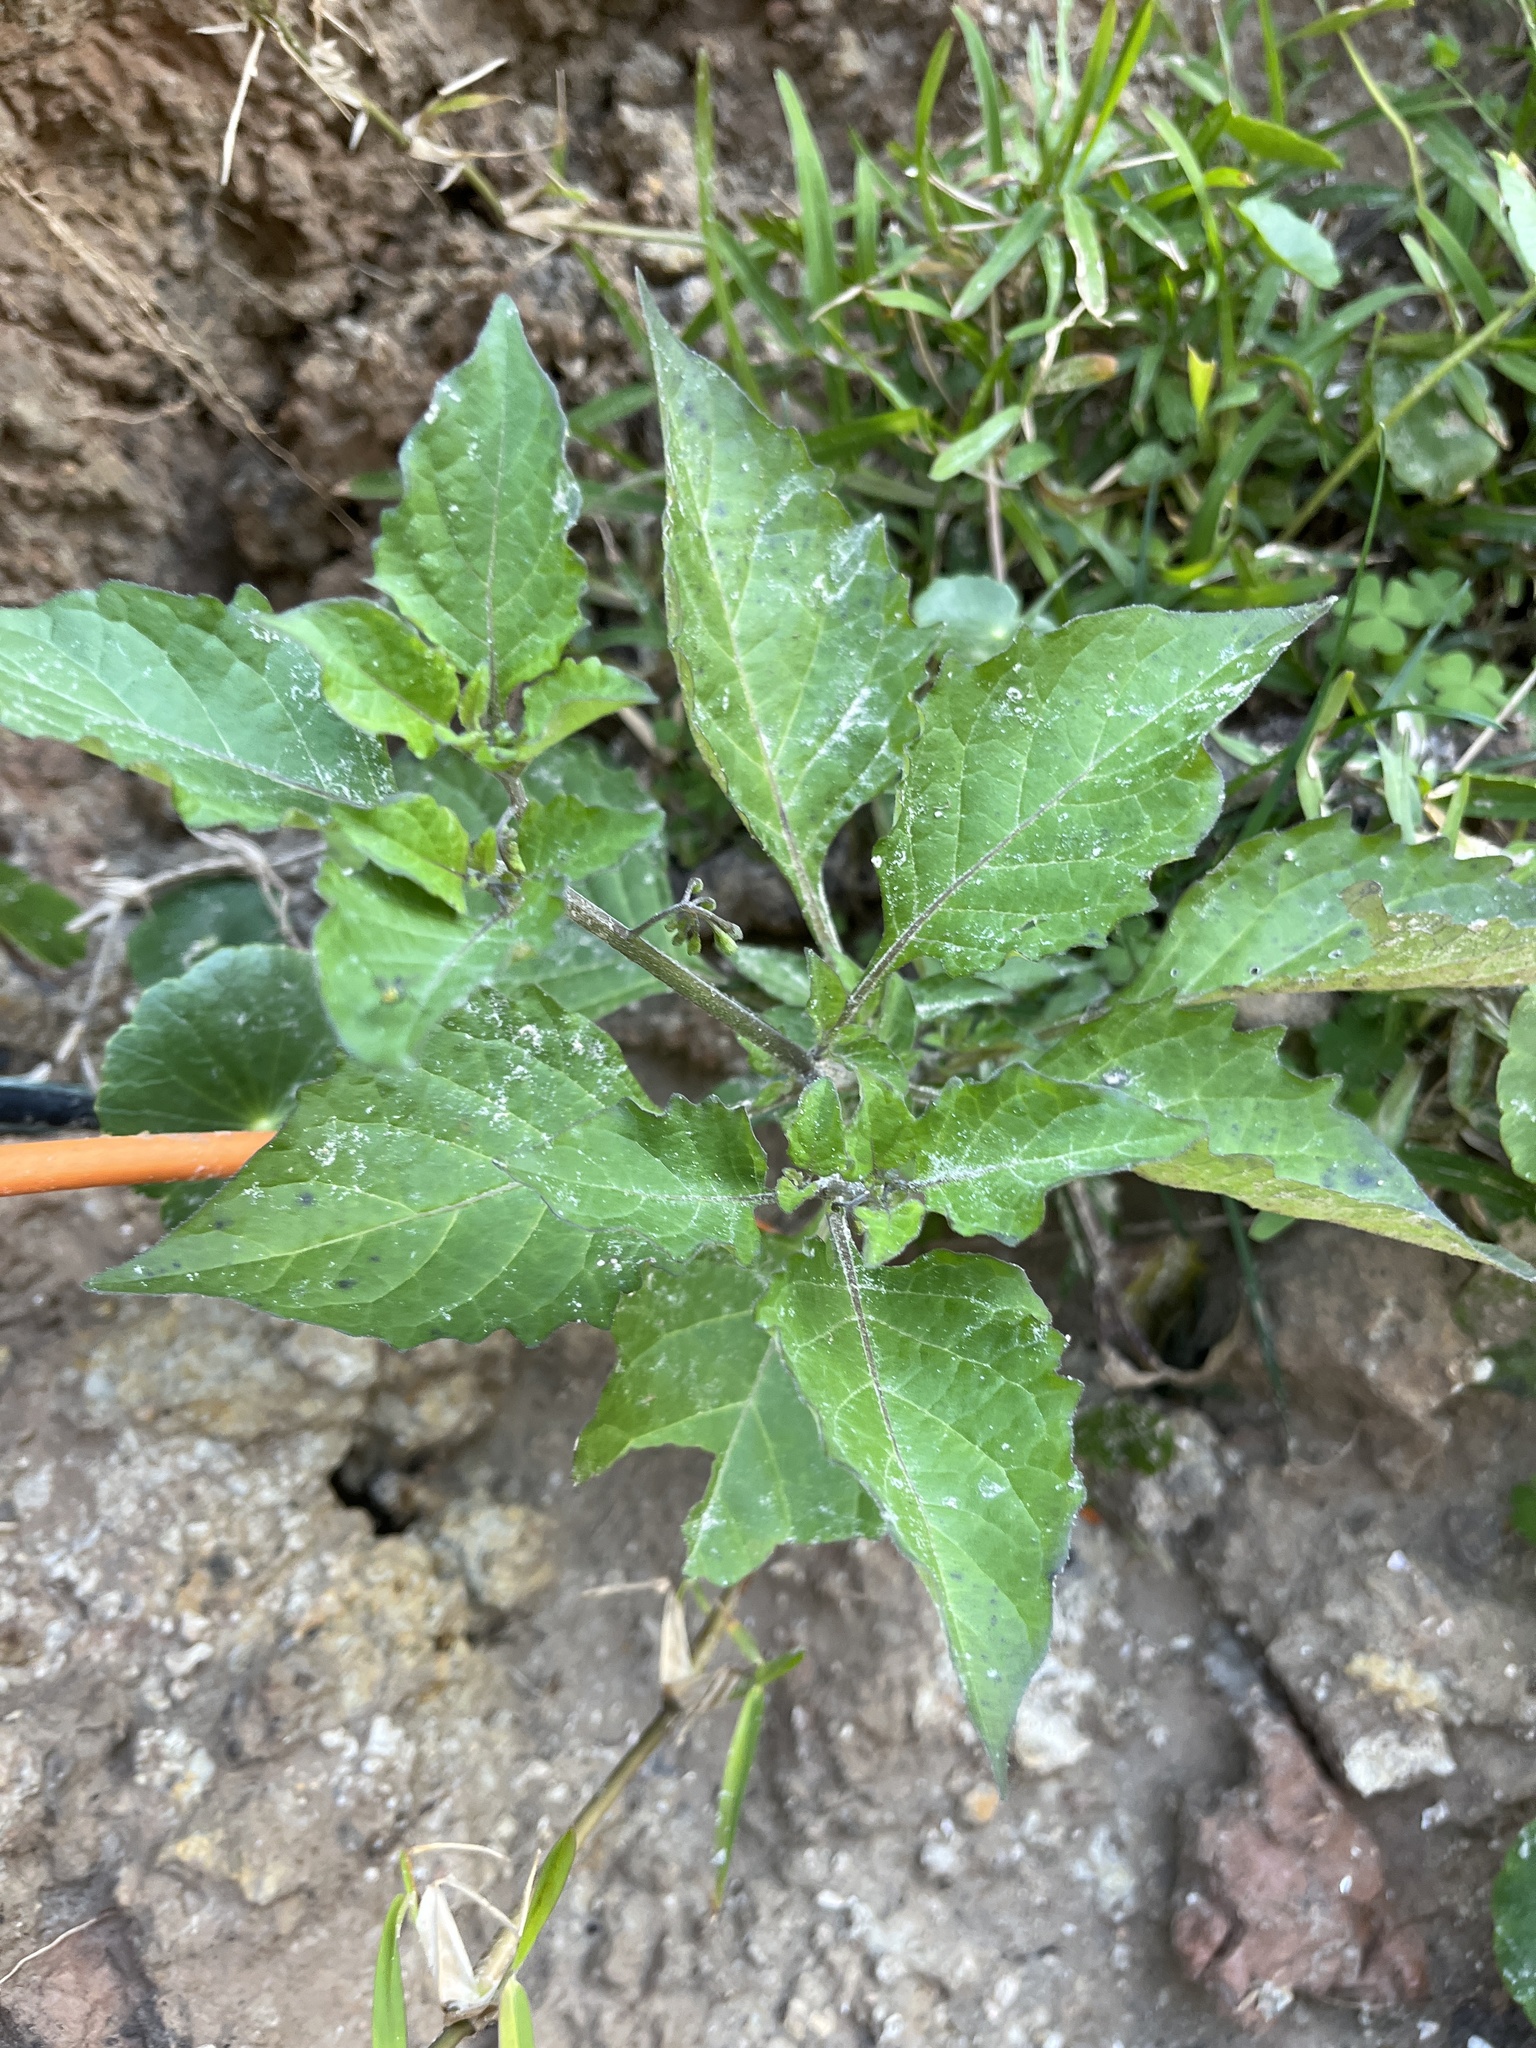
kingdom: Plantae
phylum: Tracheophyta
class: Magnoliopsida
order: Solanales
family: Solanaceae
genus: Solanum
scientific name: Solanum
